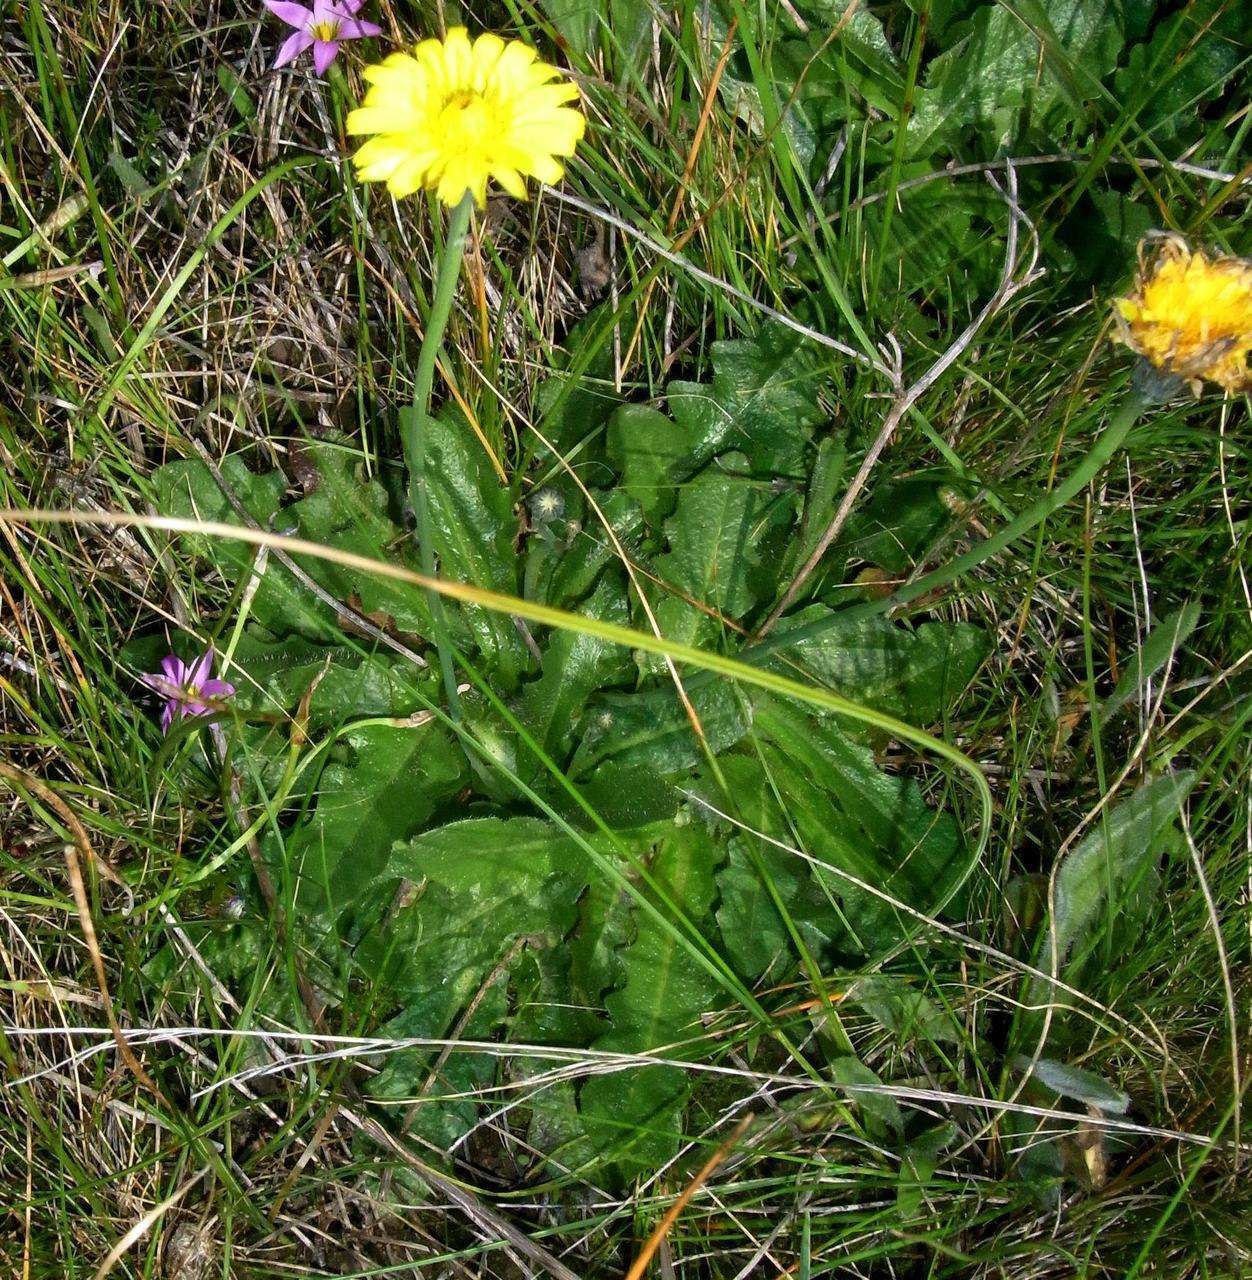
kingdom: Plantae
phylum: Tracheophyta
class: Magnoliopsida
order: Asterales
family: Asteraceae
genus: Hypochaeris
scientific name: Hypochaeris radicata
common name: Flatweed
